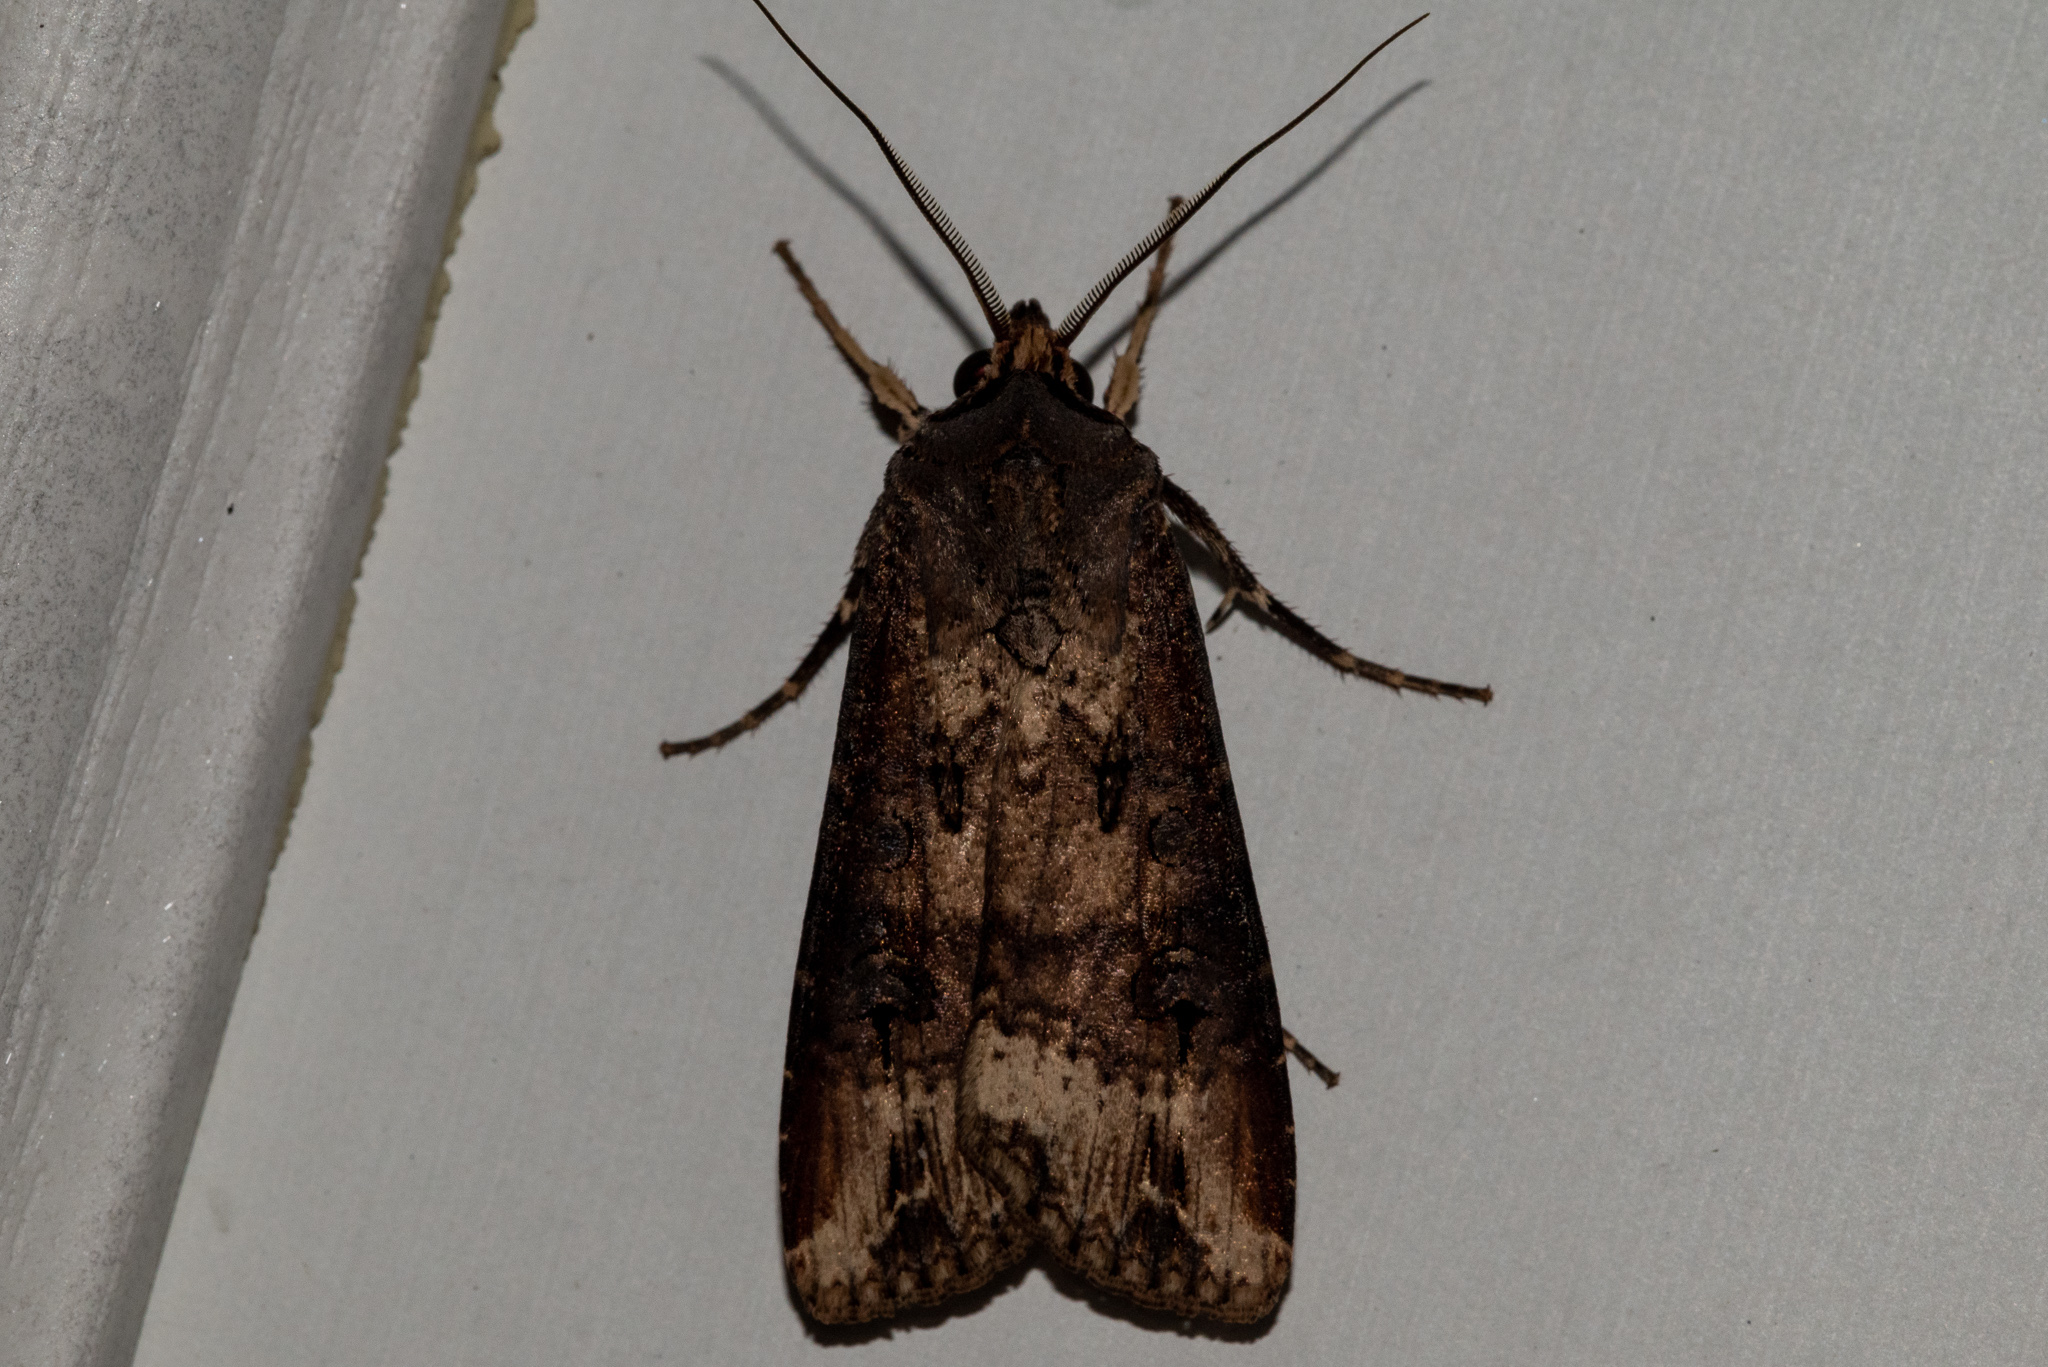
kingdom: Animalia
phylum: Arthropoda
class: Insecta
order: Lepidoptera
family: Noctuidae
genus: Agrotis
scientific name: Agrotis ipsilon
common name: Dark sword-grass
